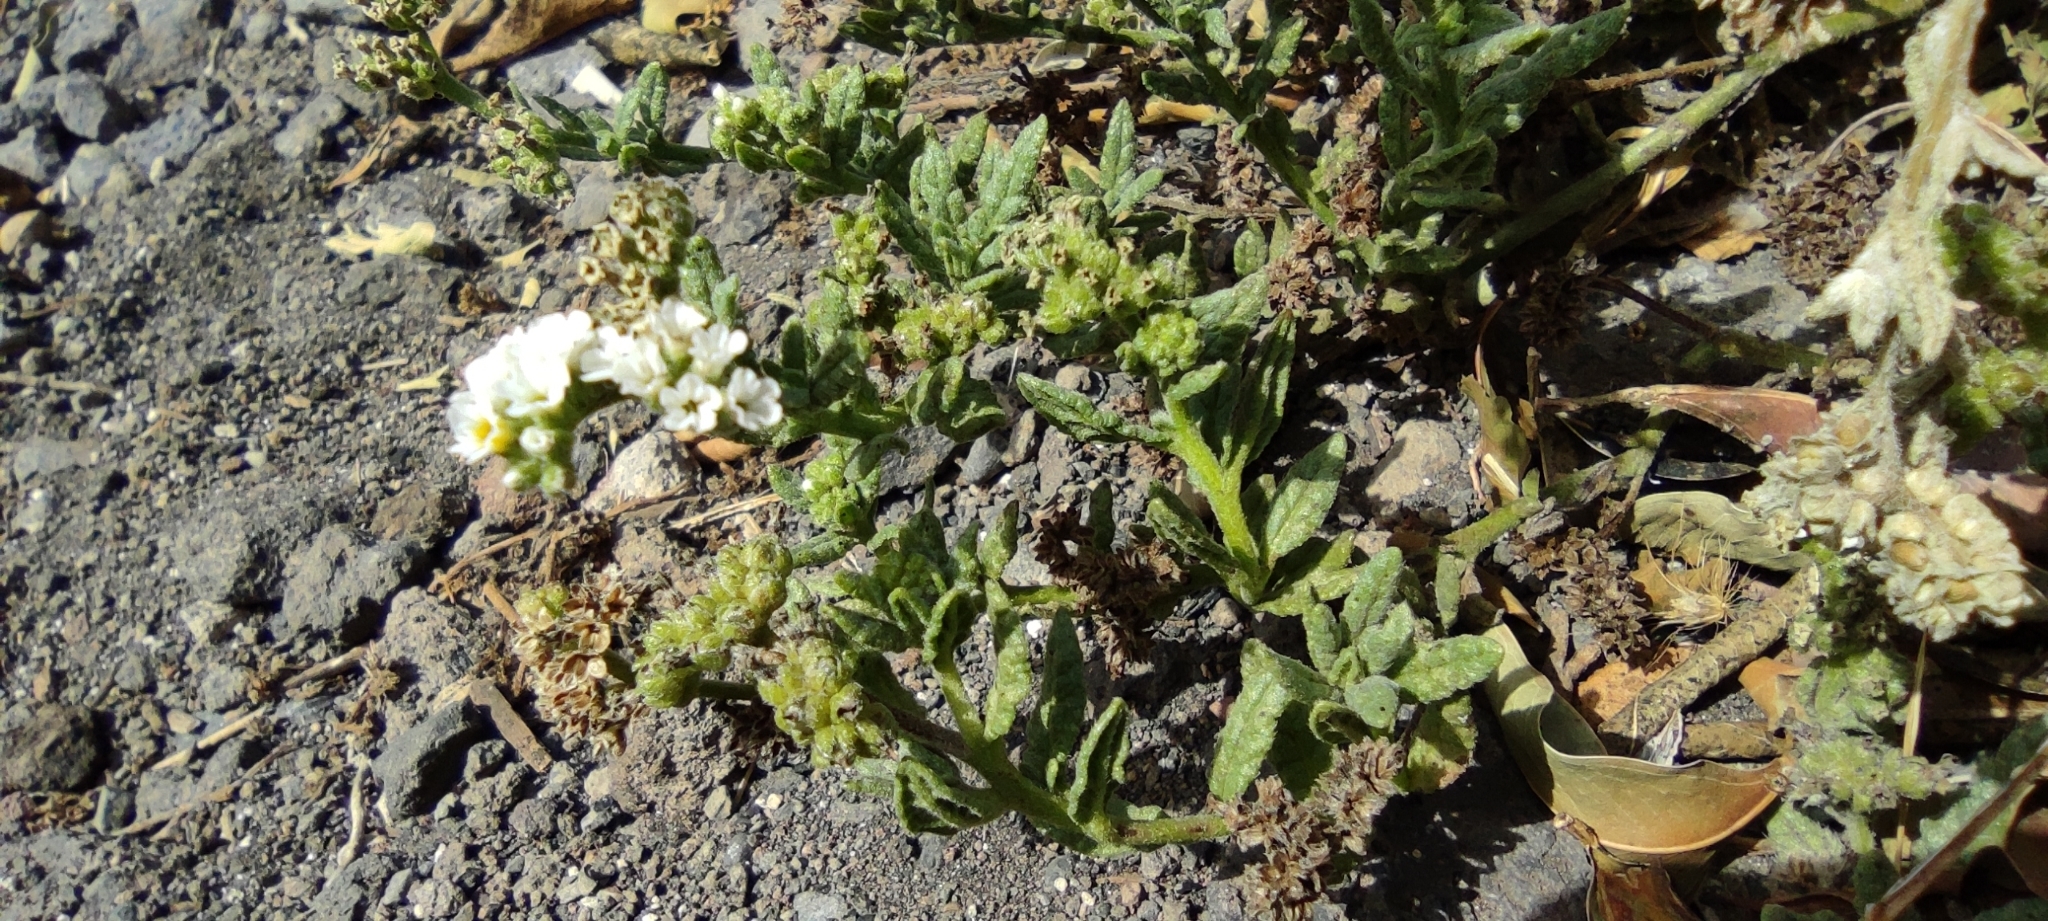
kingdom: Plantae
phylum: Tracheophyta
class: Magnoliopsida
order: Boraginales
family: Heliotropiaceae
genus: Heliotropium
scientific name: Heliotropium ramosissimum
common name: Wavy heliotrope
